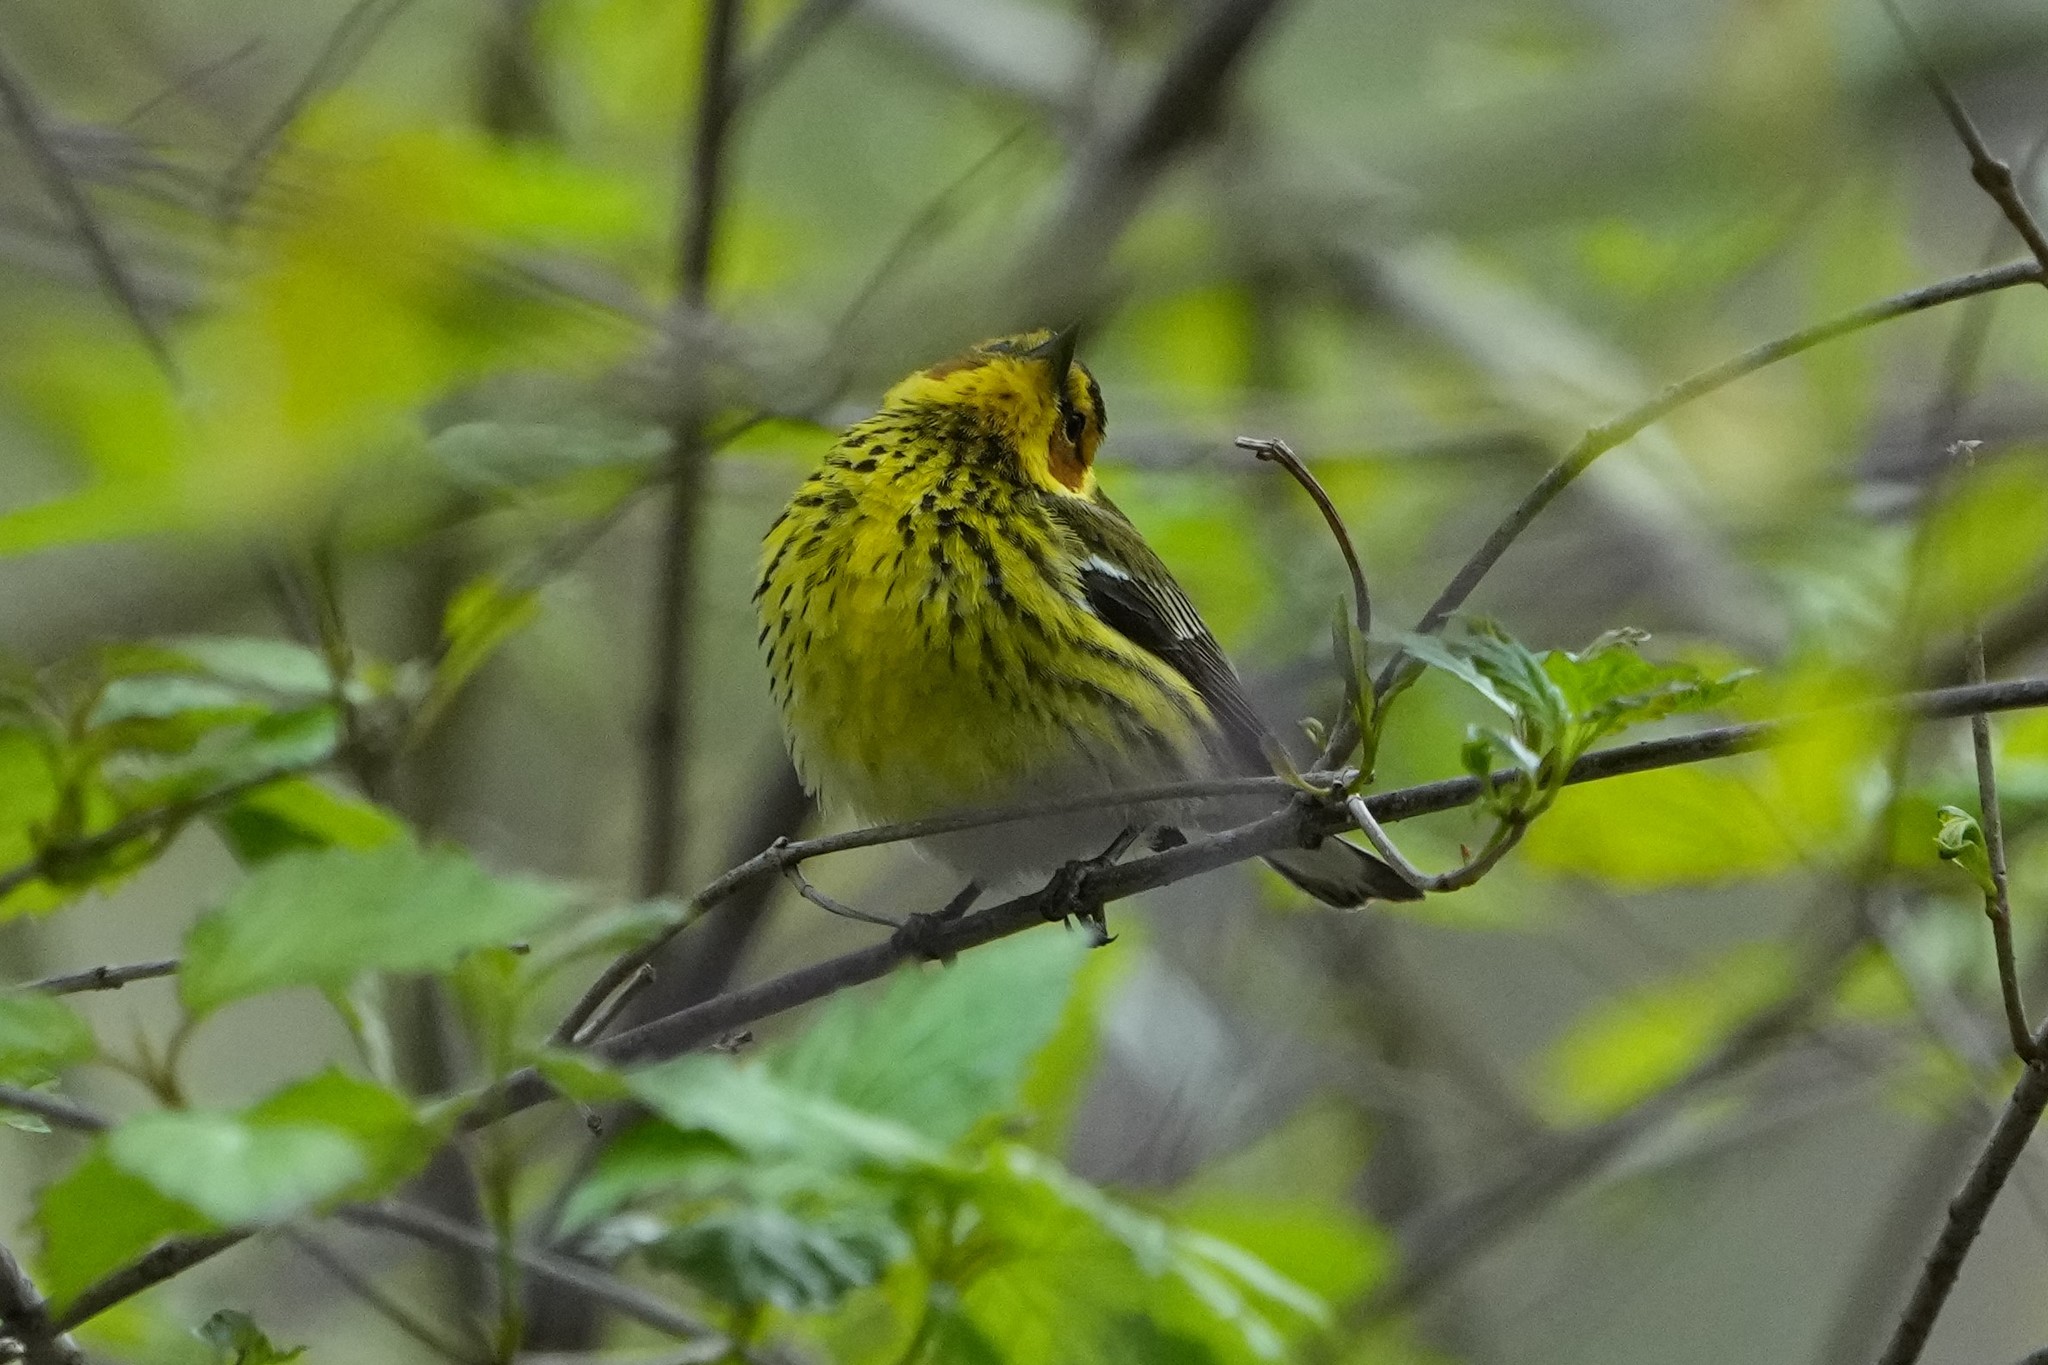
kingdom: Animalia
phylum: Chordata
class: Aves
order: Passeriformes
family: Parulidae
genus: Setophaga
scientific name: Setophaga tigrina
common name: Cape may warbler
